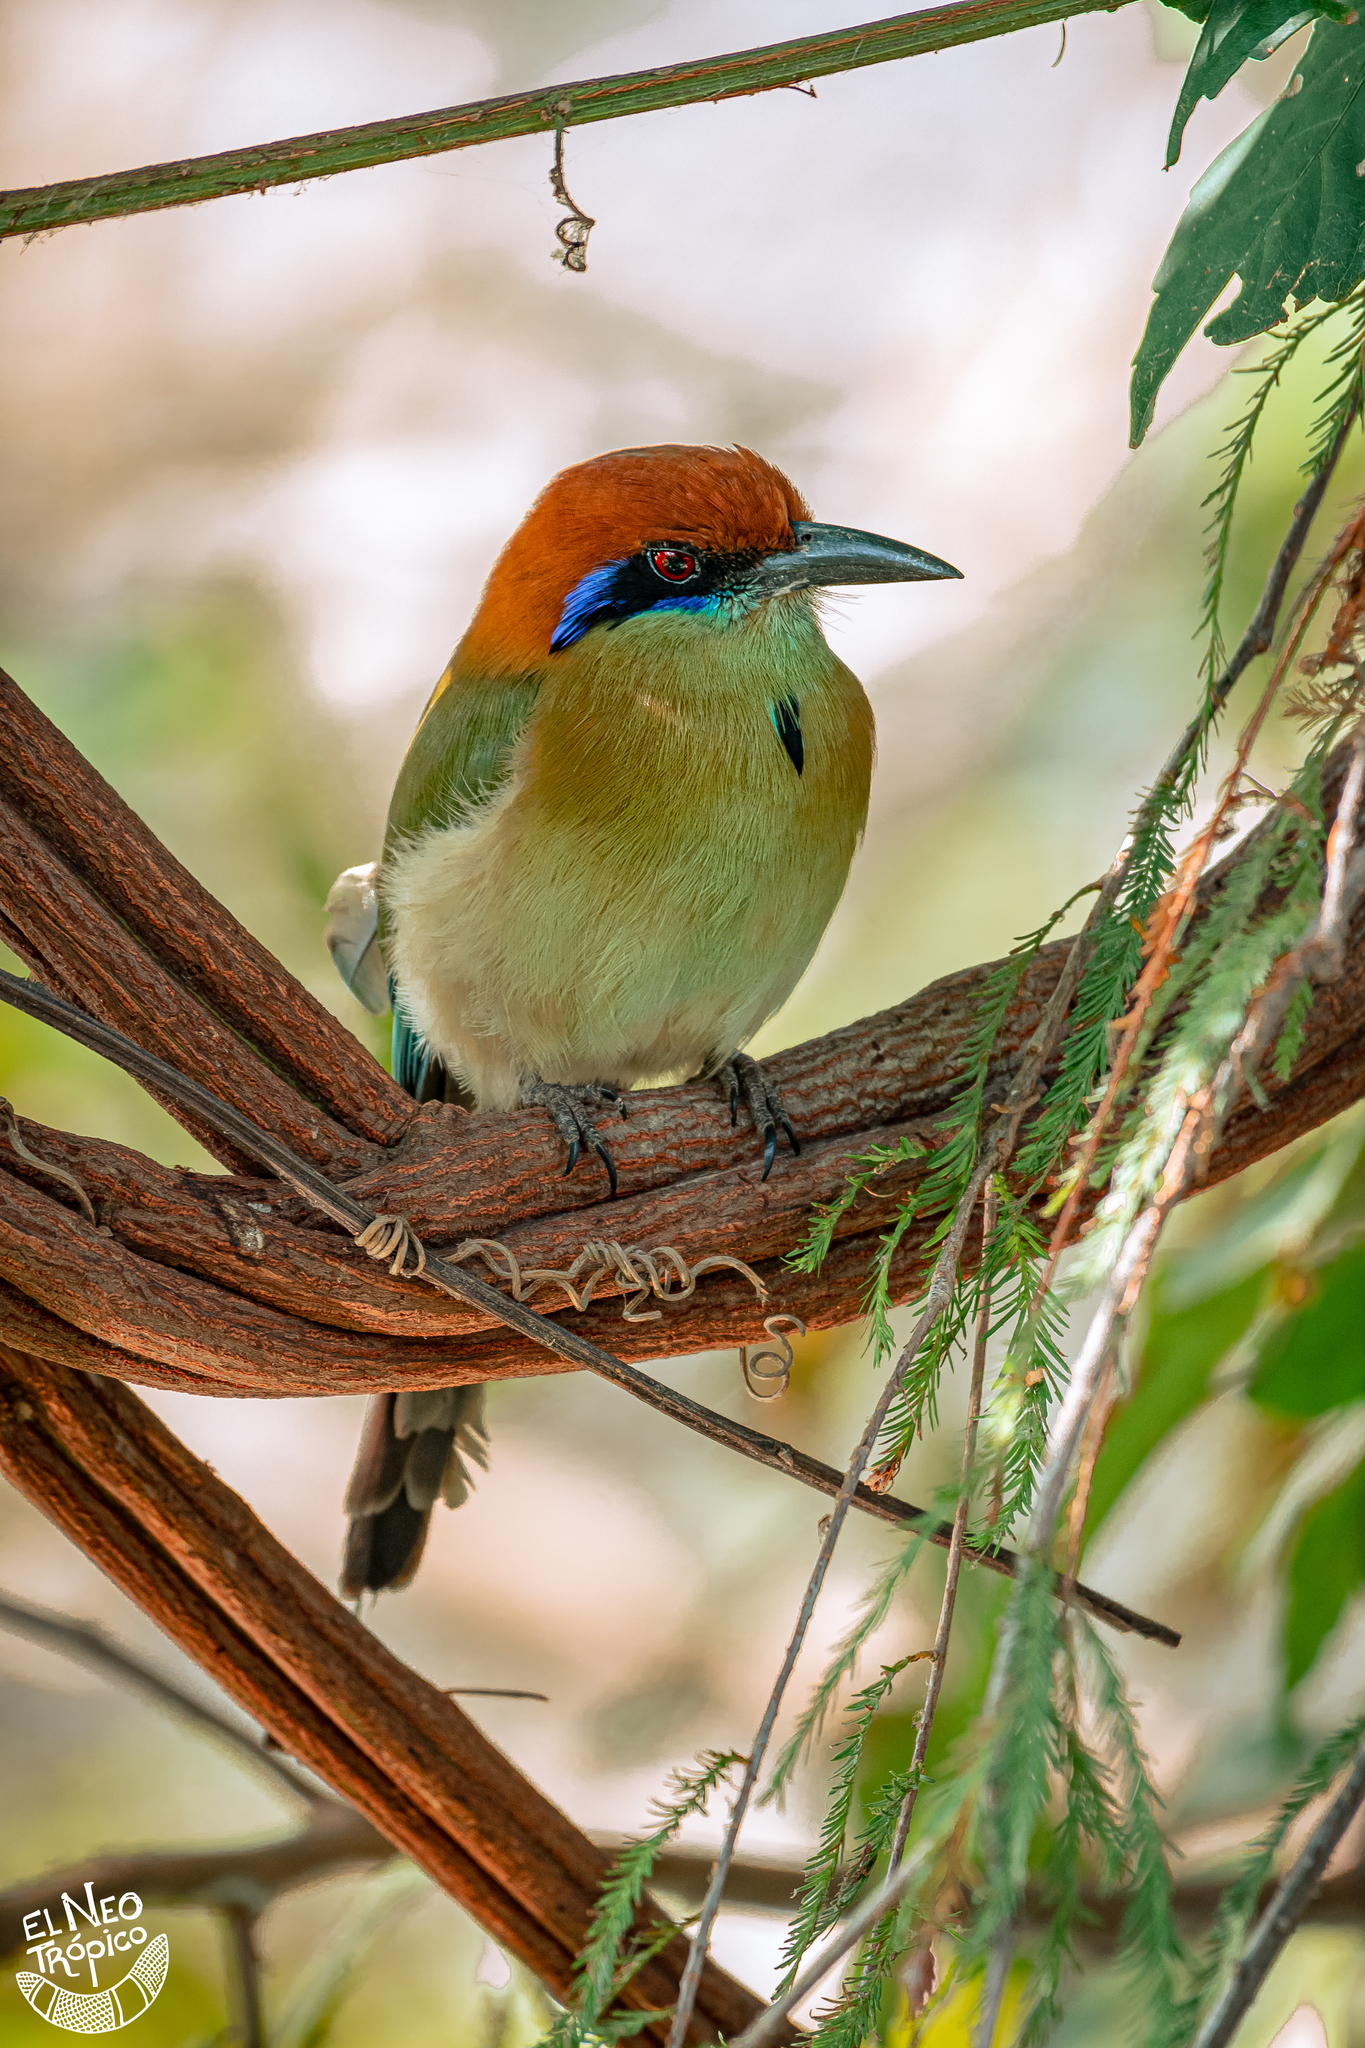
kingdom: Animalia
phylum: Chordata
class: Aves
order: Coraciiformes
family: Momotidae
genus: Momotus
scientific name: Momotus mexicanus
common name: Russet-crowned motmot
